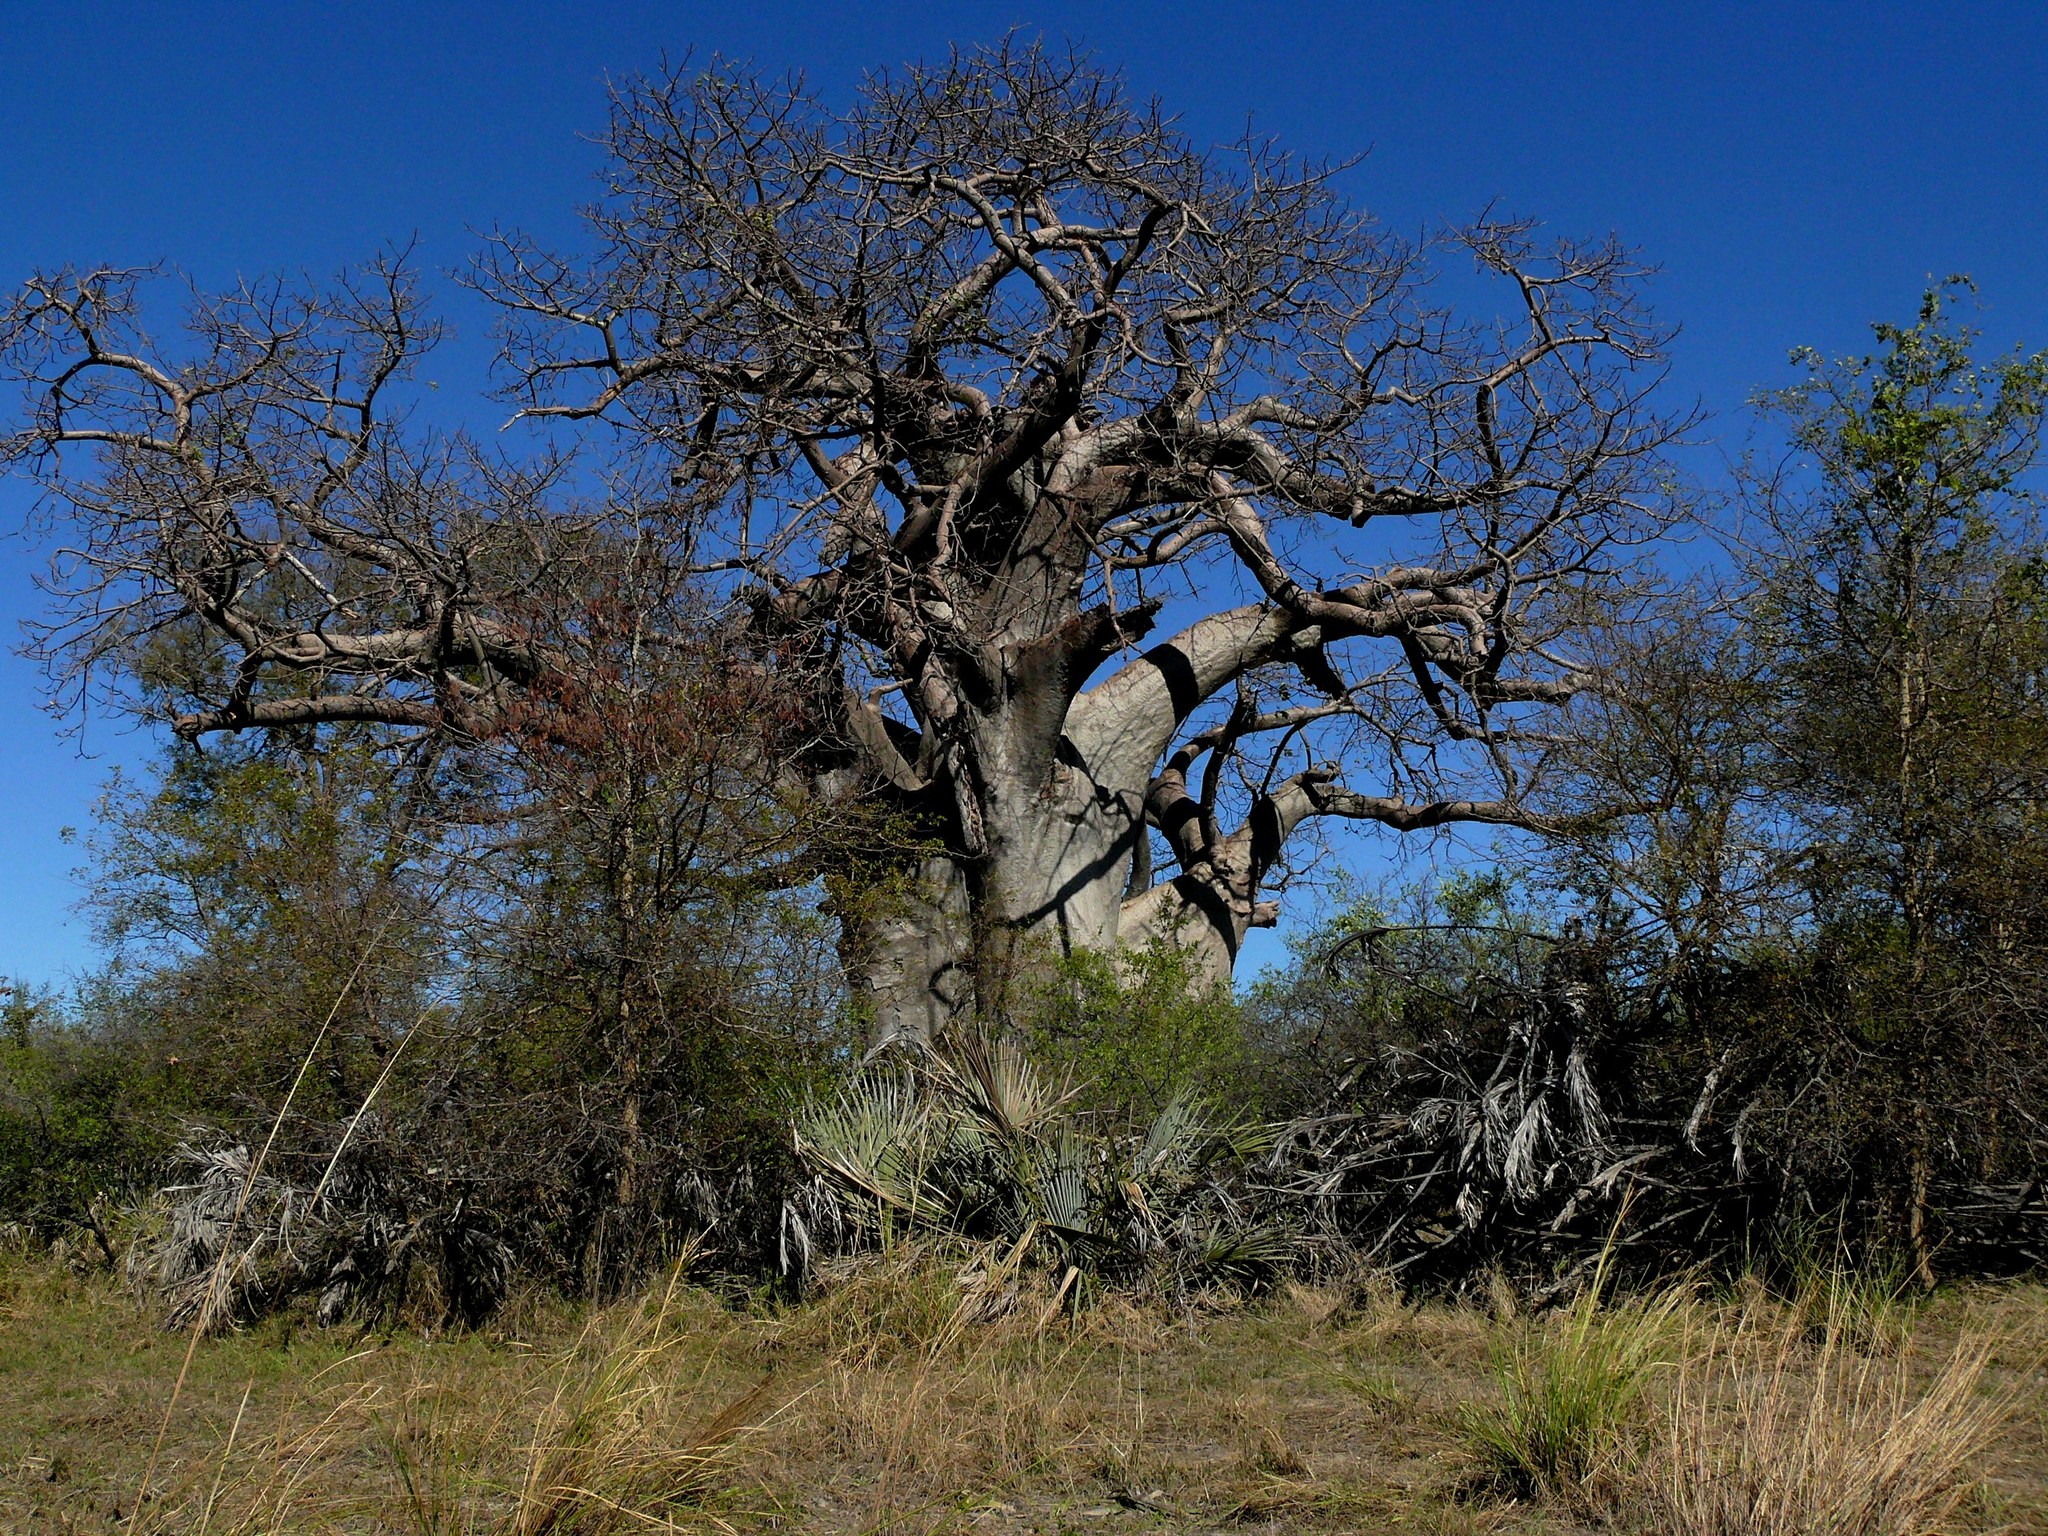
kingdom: Plantae
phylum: Tracheophyta
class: Magnoliopsida
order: Malvales
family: Malvaceae
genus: Adansonia
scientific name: Adansonia digitata
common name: Dead-rat-tree
